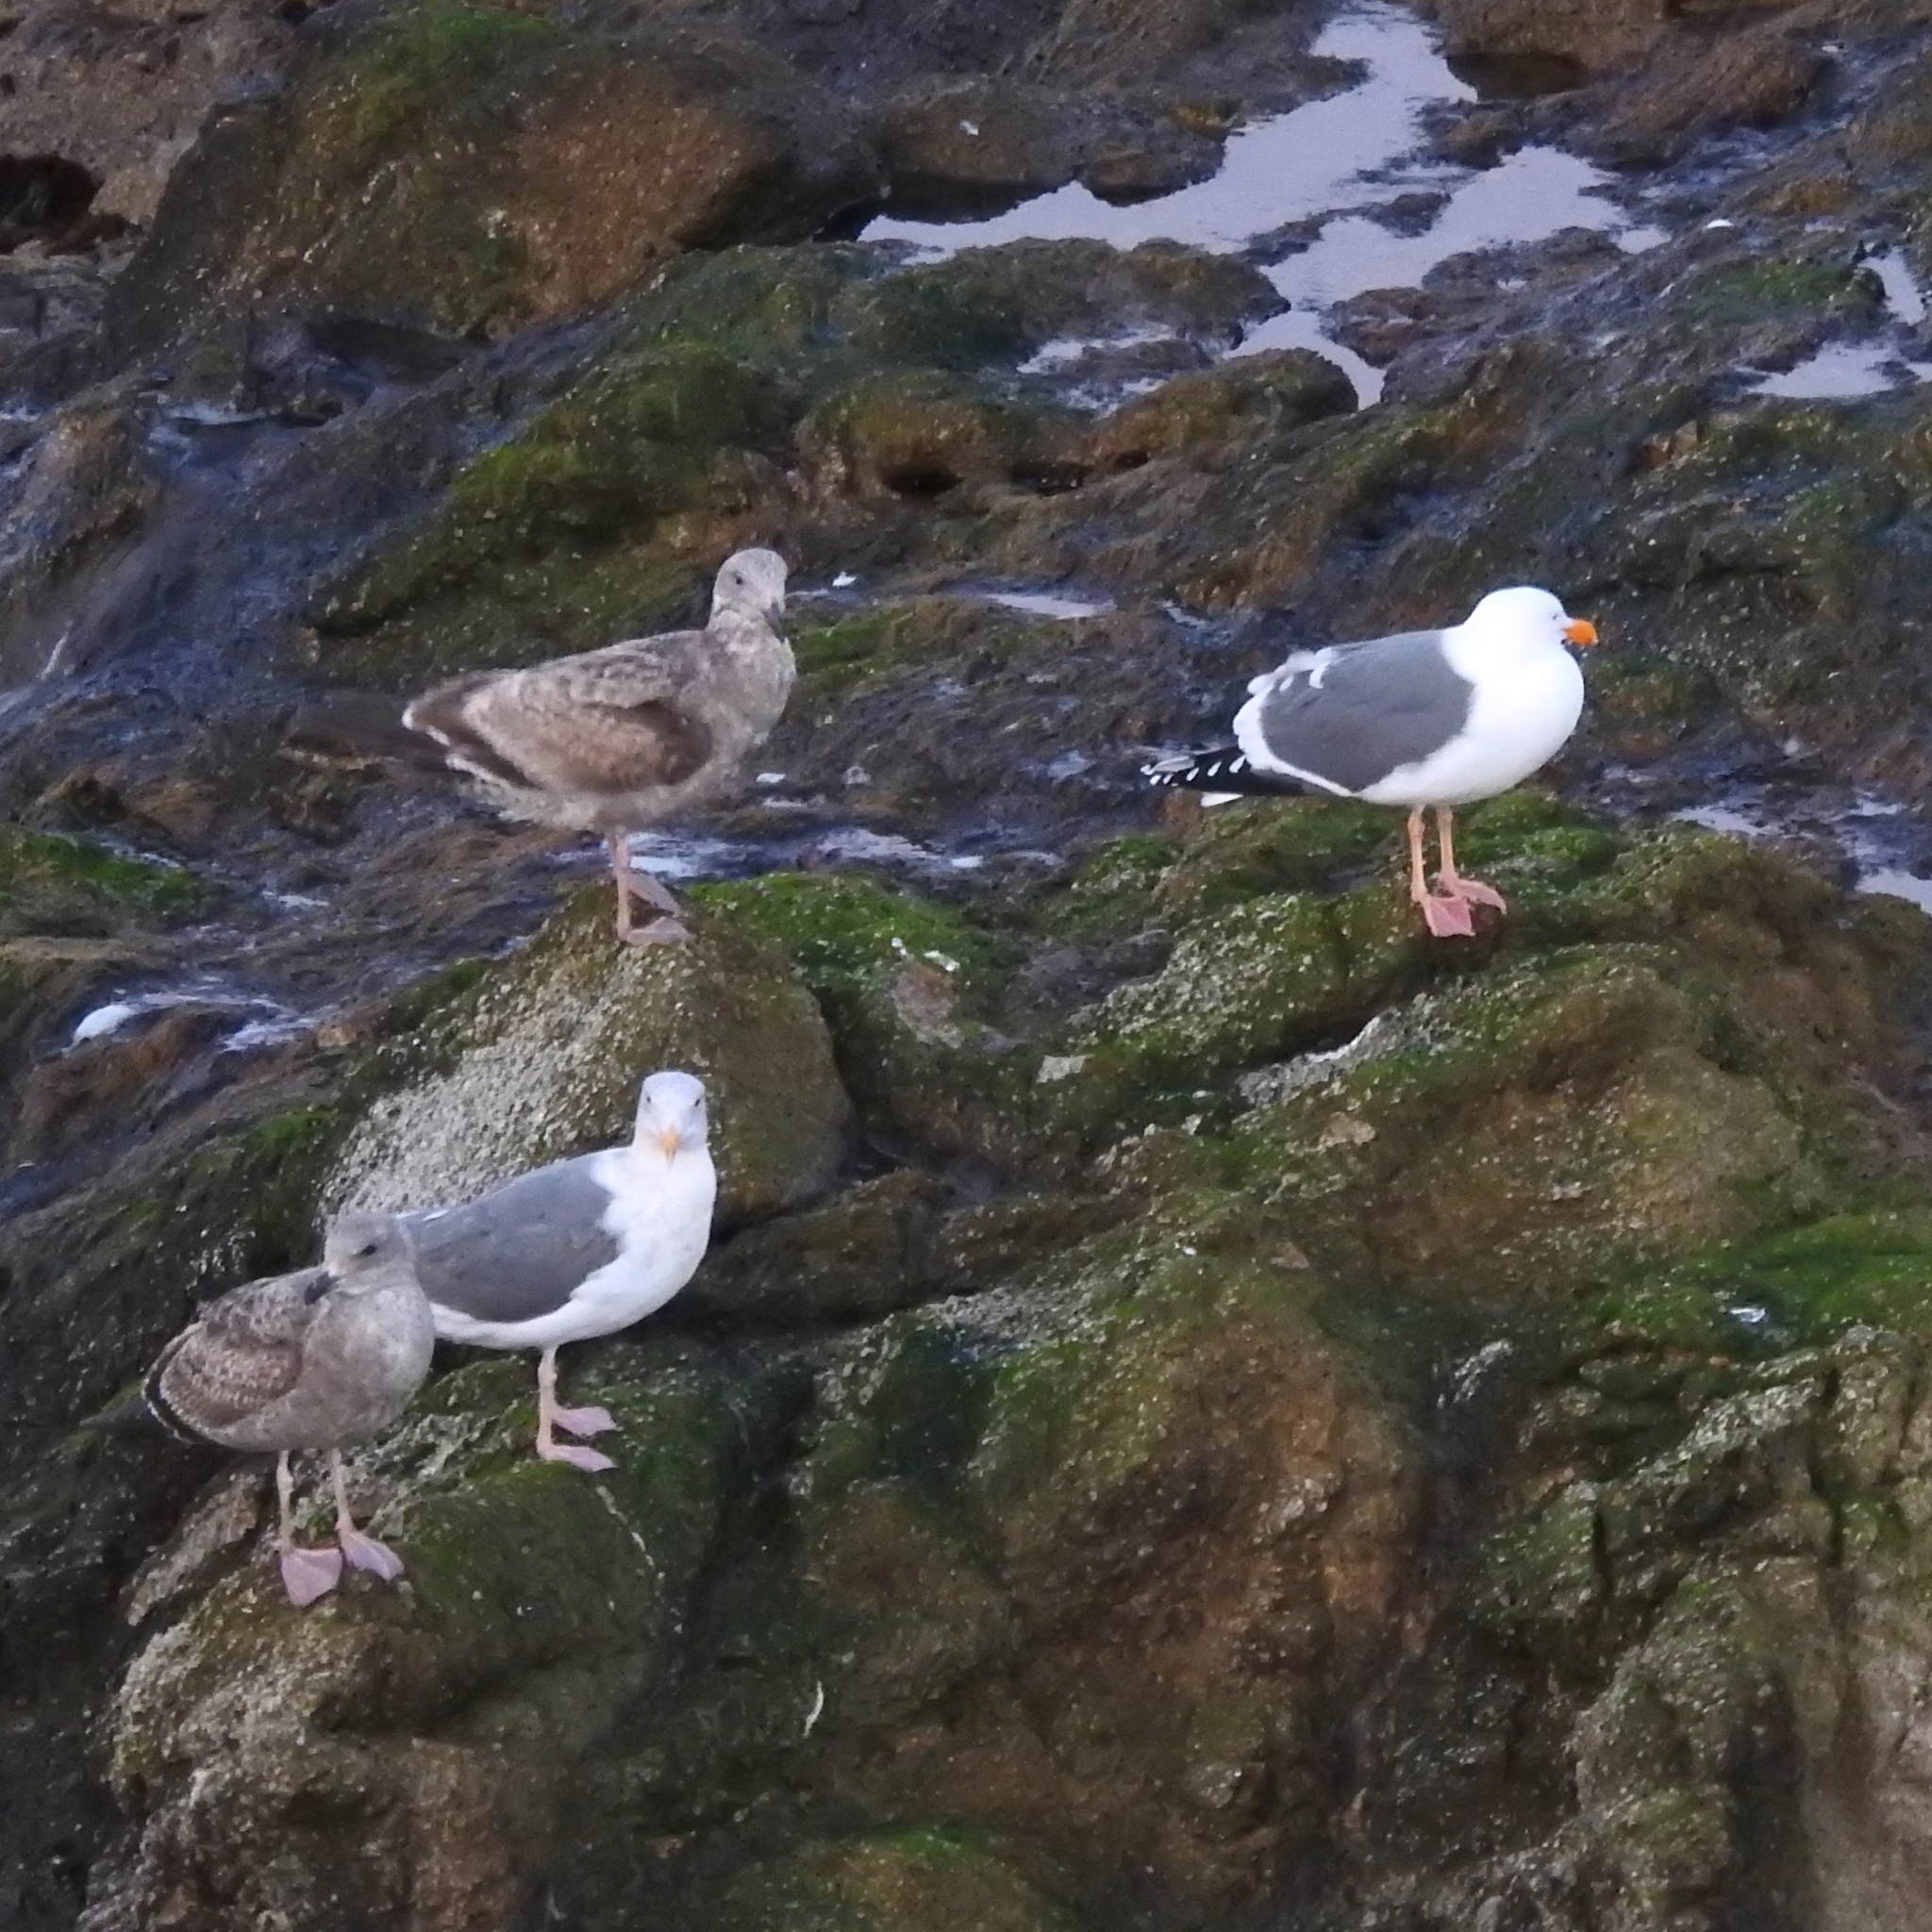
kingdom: Animalia
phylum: Chordata
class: Aves
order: Charadriiformes
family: Laridae
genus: Larus
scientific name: Larus occidentalis
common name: Western gull
